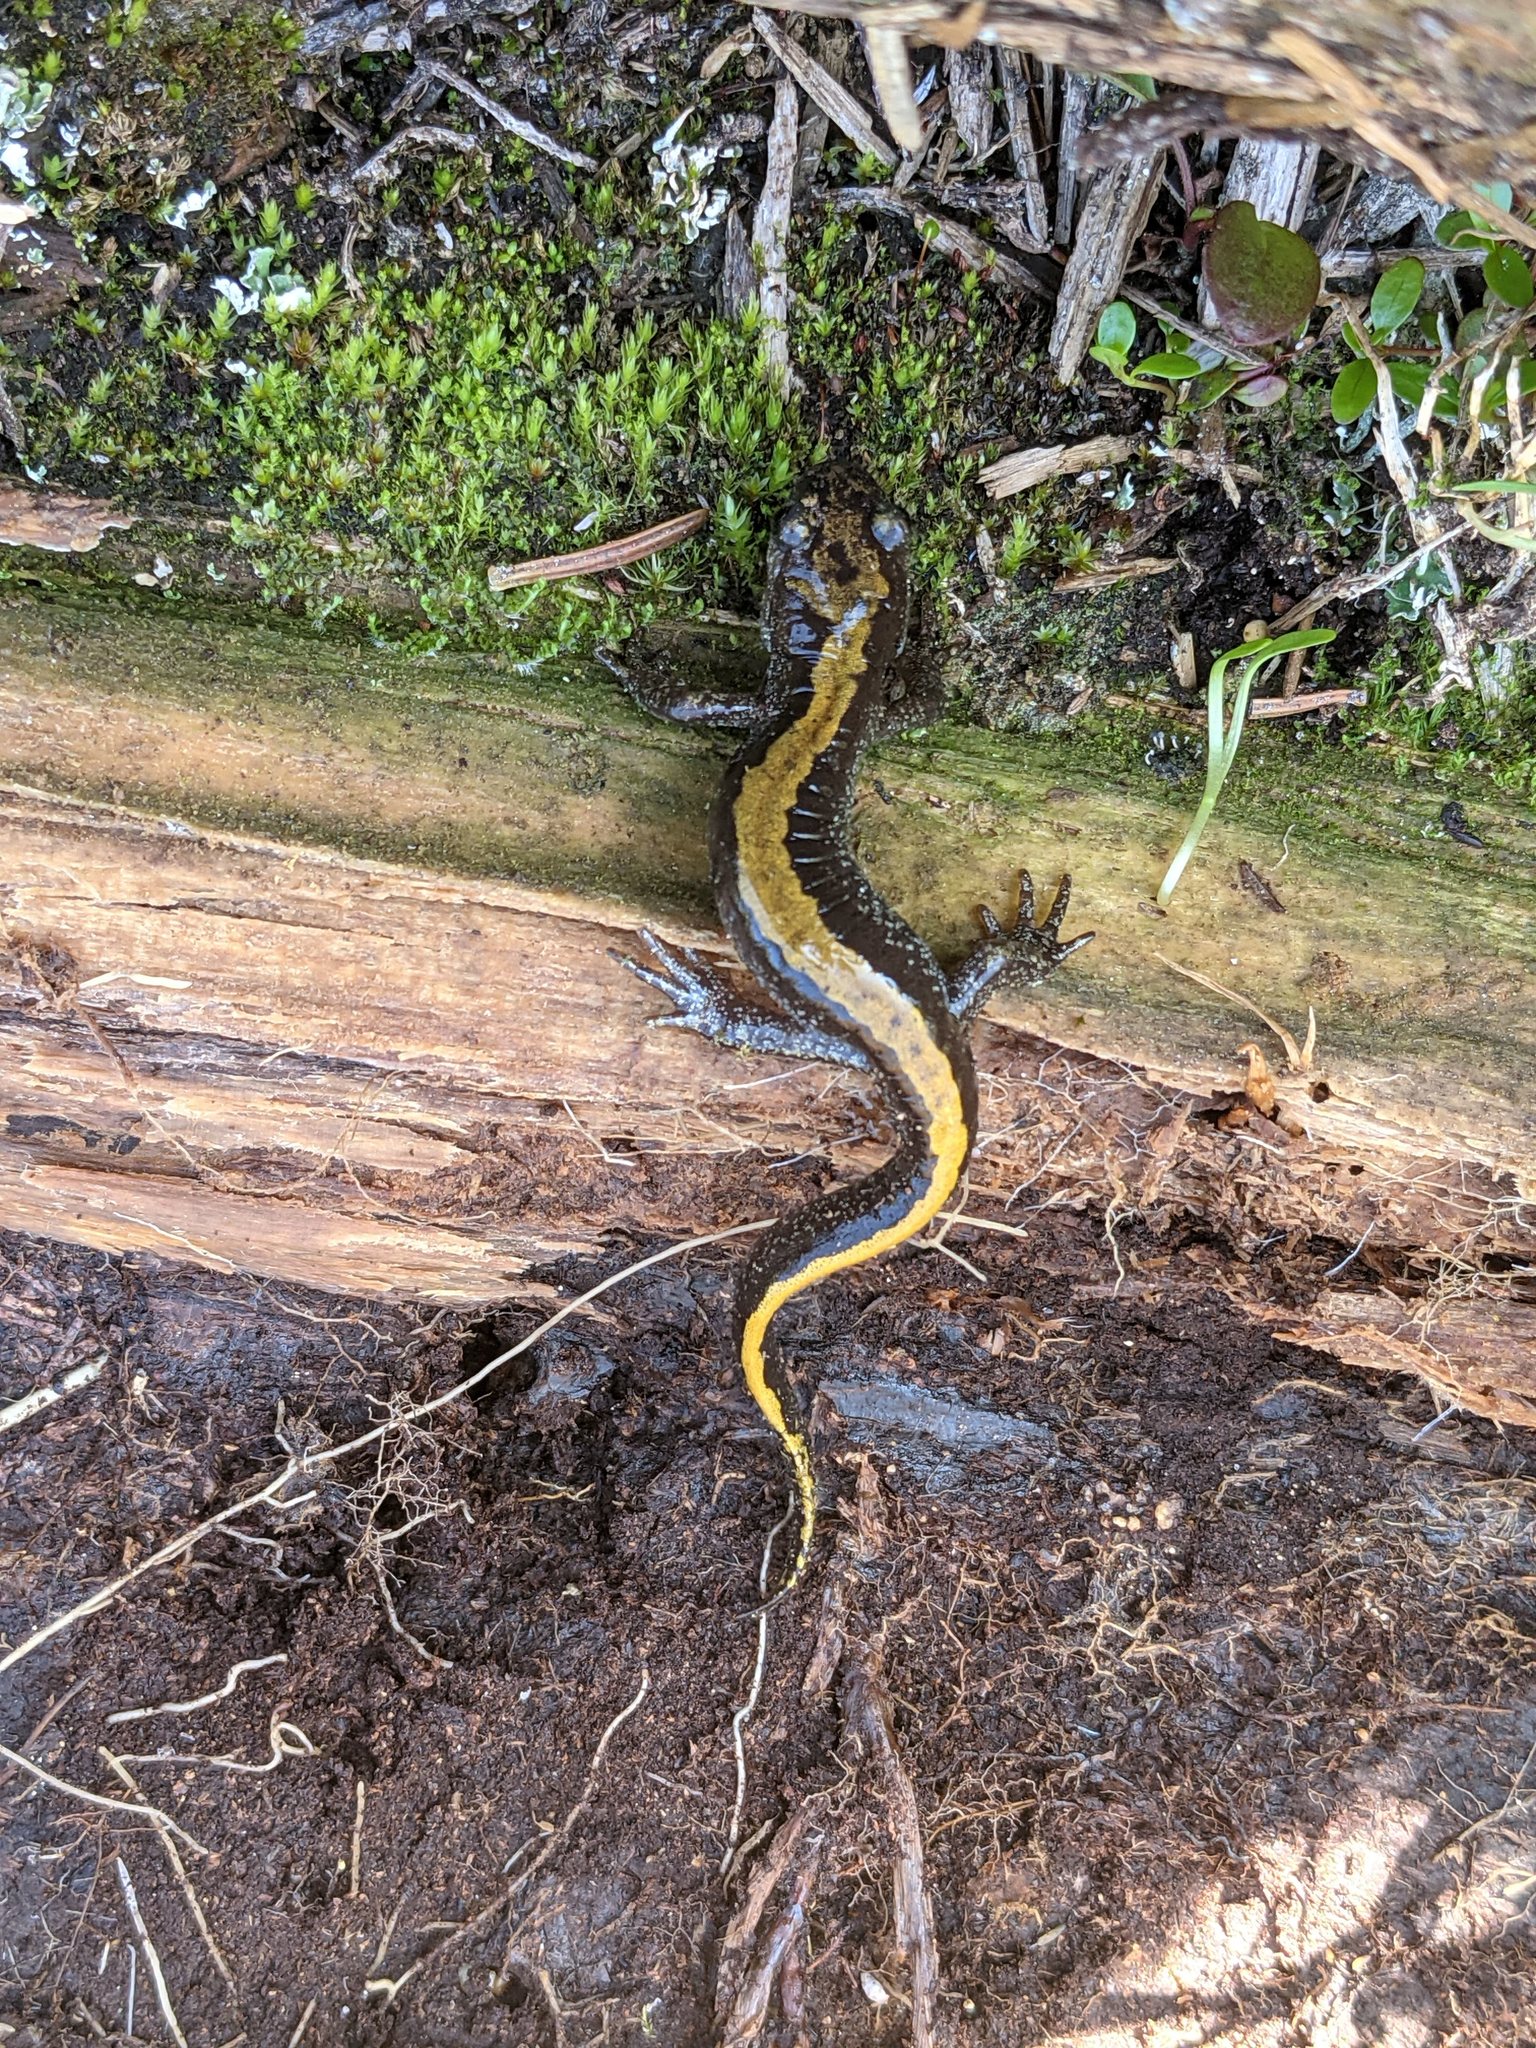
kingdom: Animalia
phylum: Chordata
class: Amphibia
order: Caudata
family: Ambystomatidae
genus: Ambystoma
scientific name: Ambystoma macrodactylum
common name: Long-toed salamander
